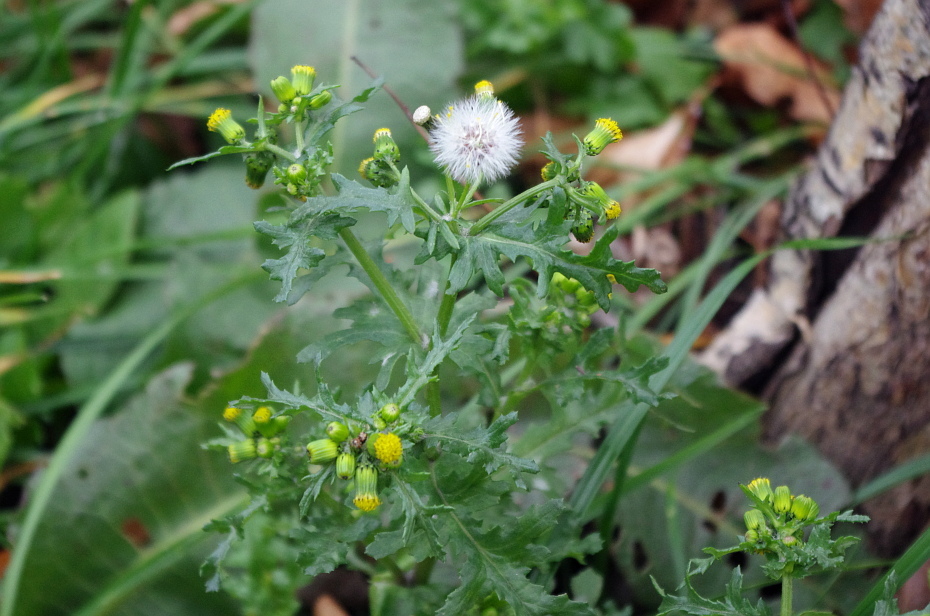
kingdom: Plantae
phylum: Tracheophyta
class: Magnoliopsida
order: Asterales
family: Asteraceae
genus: Senecio
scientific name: Senecio vulgaris
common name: Old-man-in-the-spring
